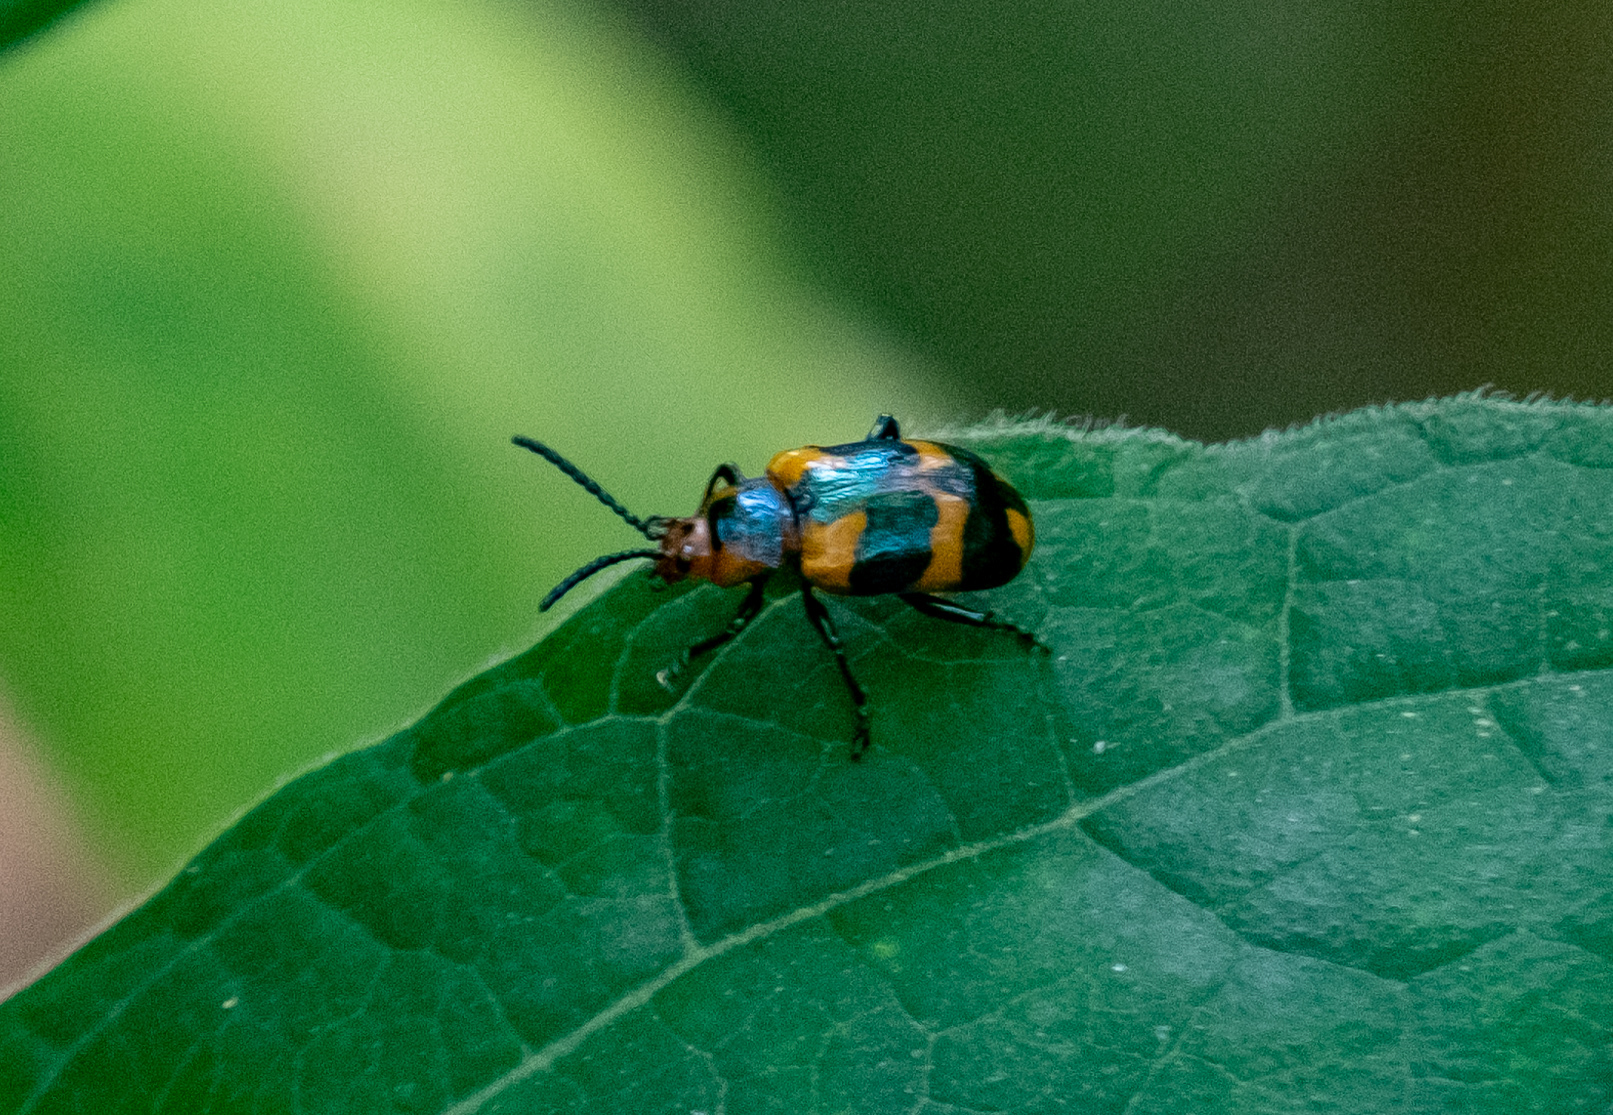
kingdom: Animalia
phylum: Arthropoda
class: Insecta
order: Coleoptera
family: Chrysomelidae
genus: Phyllocharis
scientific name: Phyllocharis
